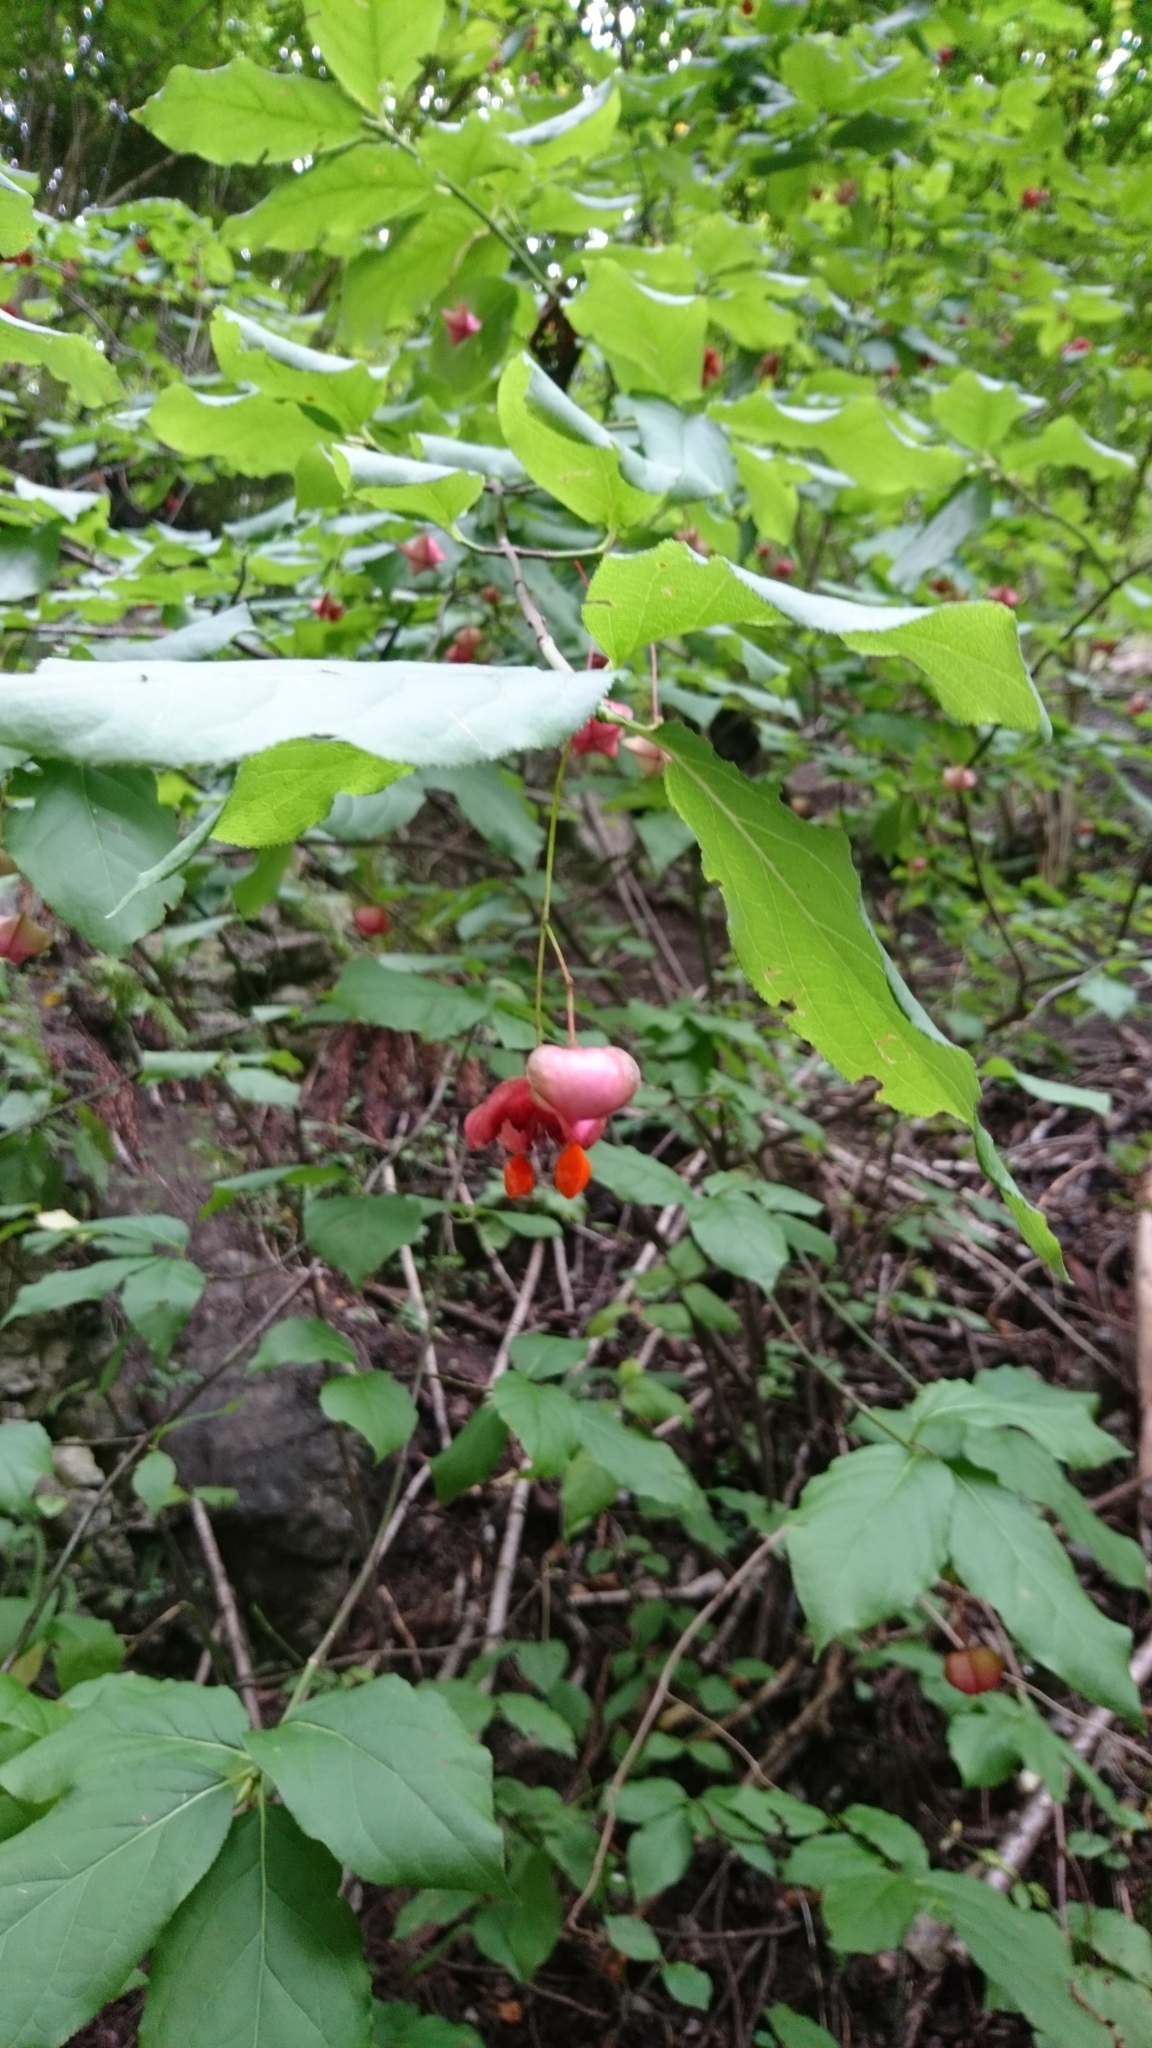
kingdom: Plantae
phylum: Tracheophyta
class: Magnoliopsida
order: Celastrales
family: Celastraceae
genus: Euonymus
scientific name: Euonymus latifolius
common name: Large-leaved spindle
